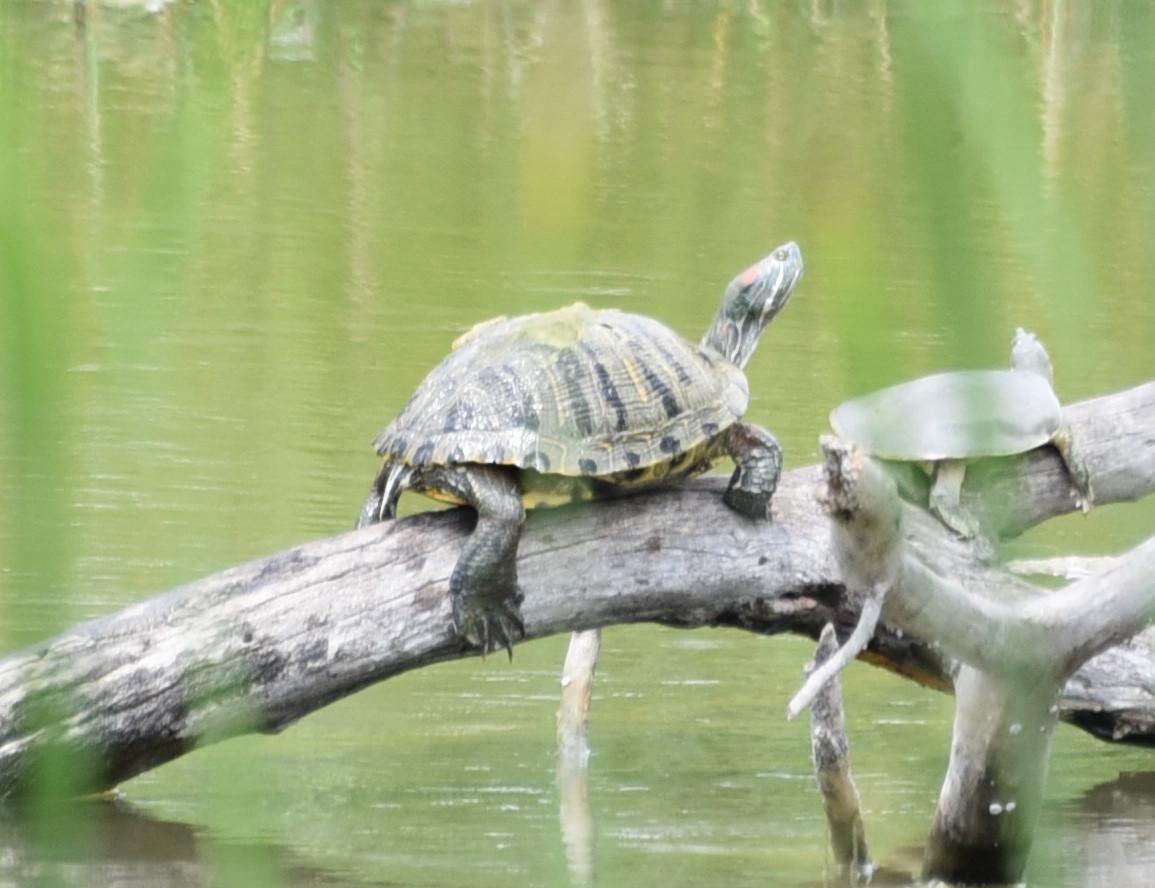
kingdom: Animalia
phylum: Chordata
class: Testudines
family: Emydidae
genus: Trachemys
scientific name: Trachemys scripta
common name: Slider
